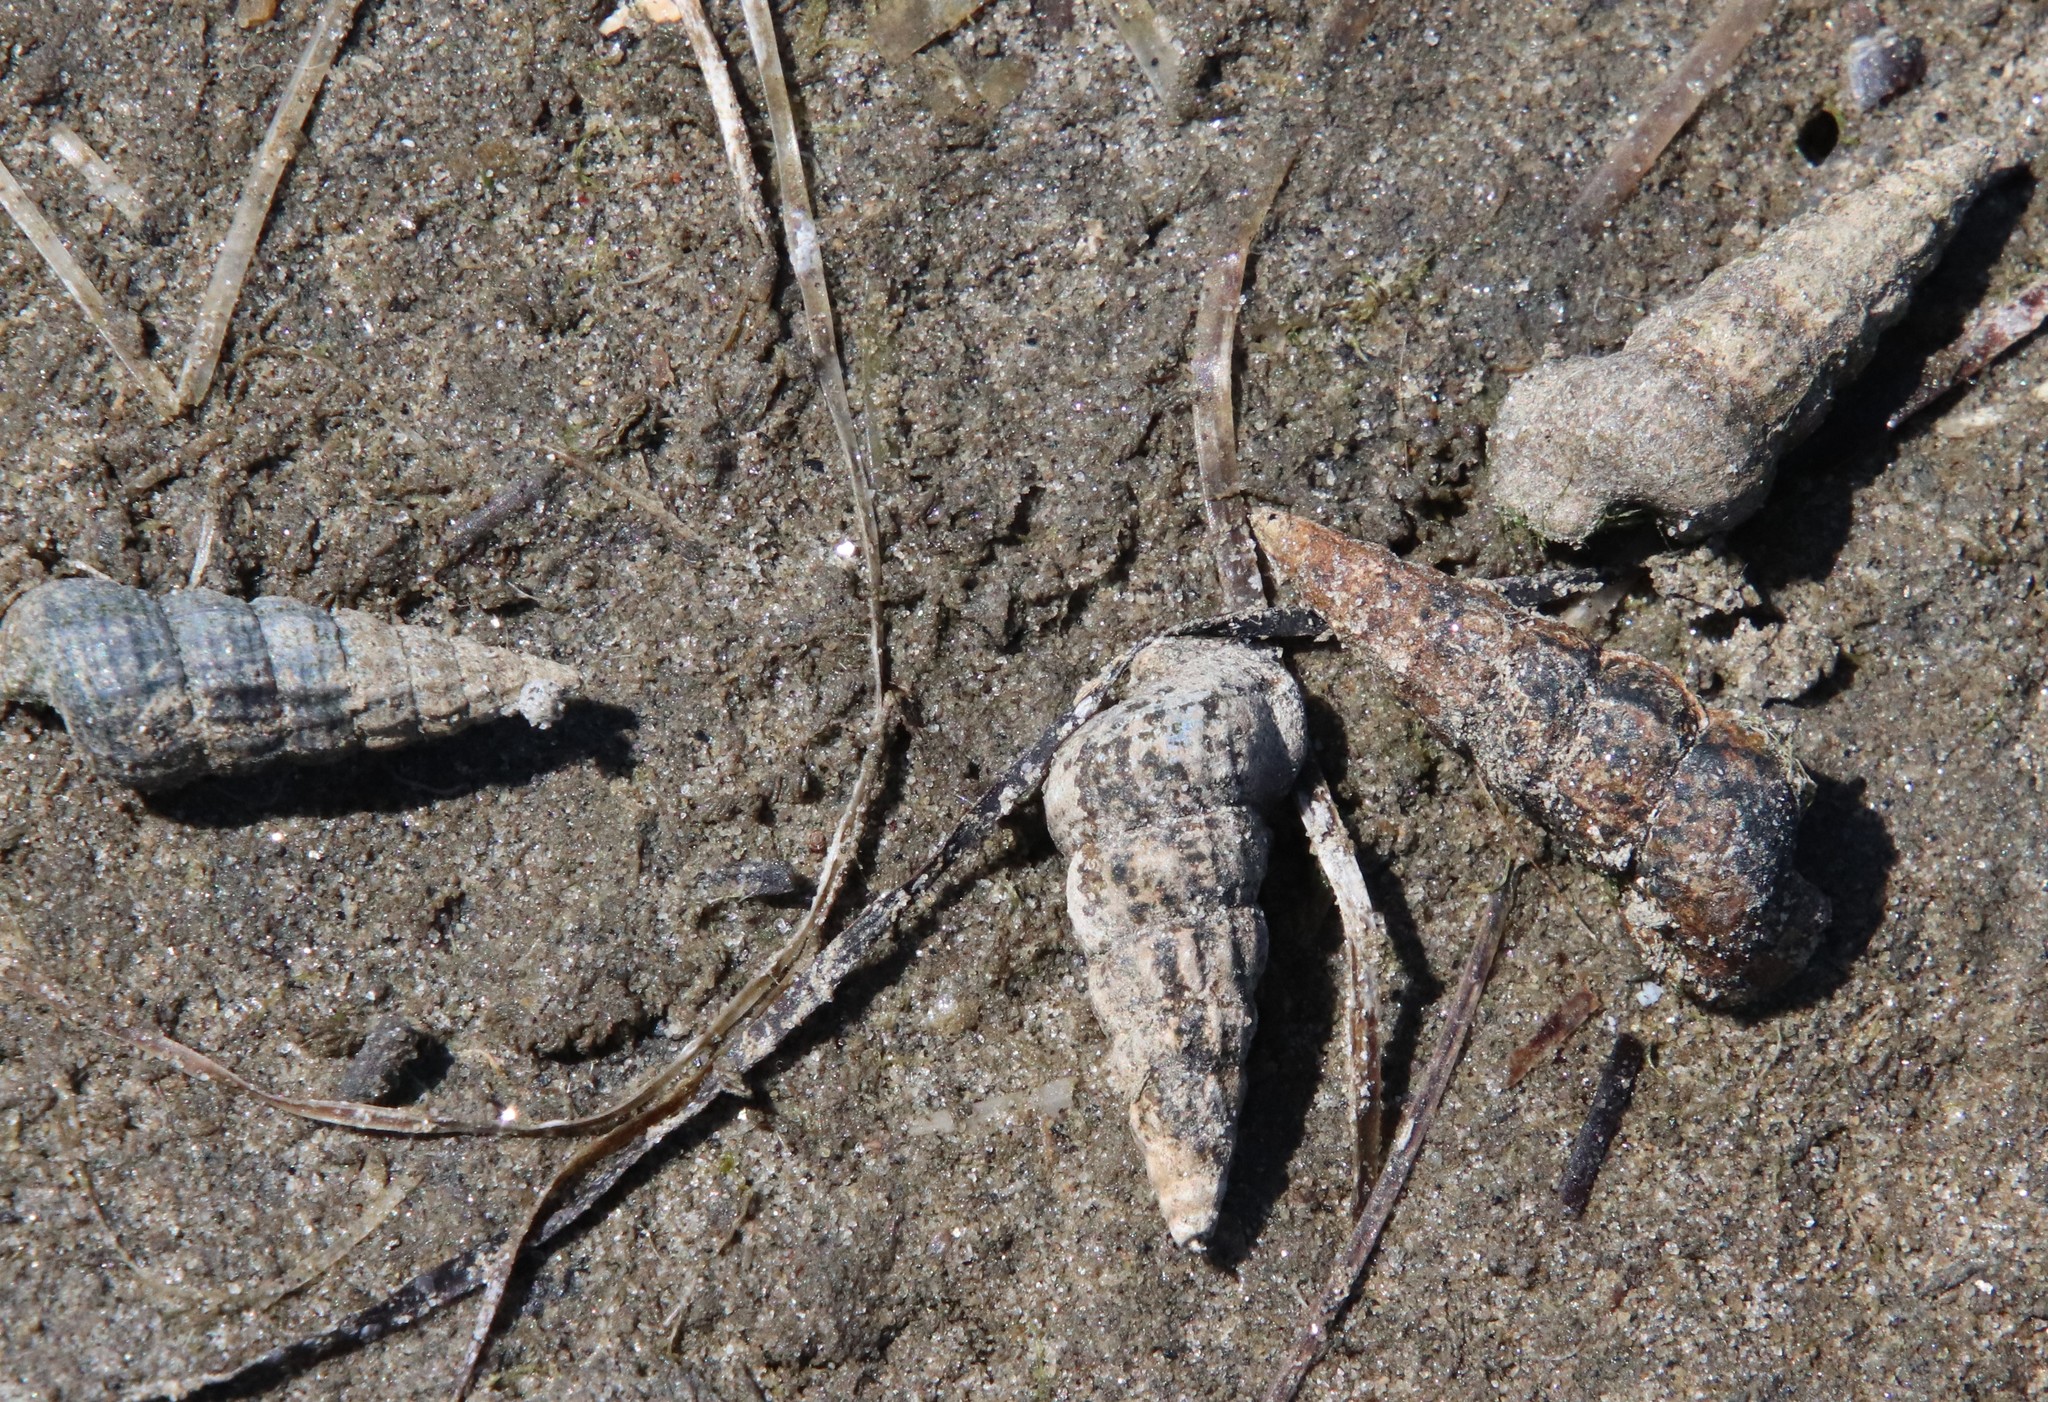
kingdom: Animalia
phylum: Mollusca
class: Gastropoda
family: Potamididae
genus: Cerithideopsis
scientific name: Cerithideopsis californica
